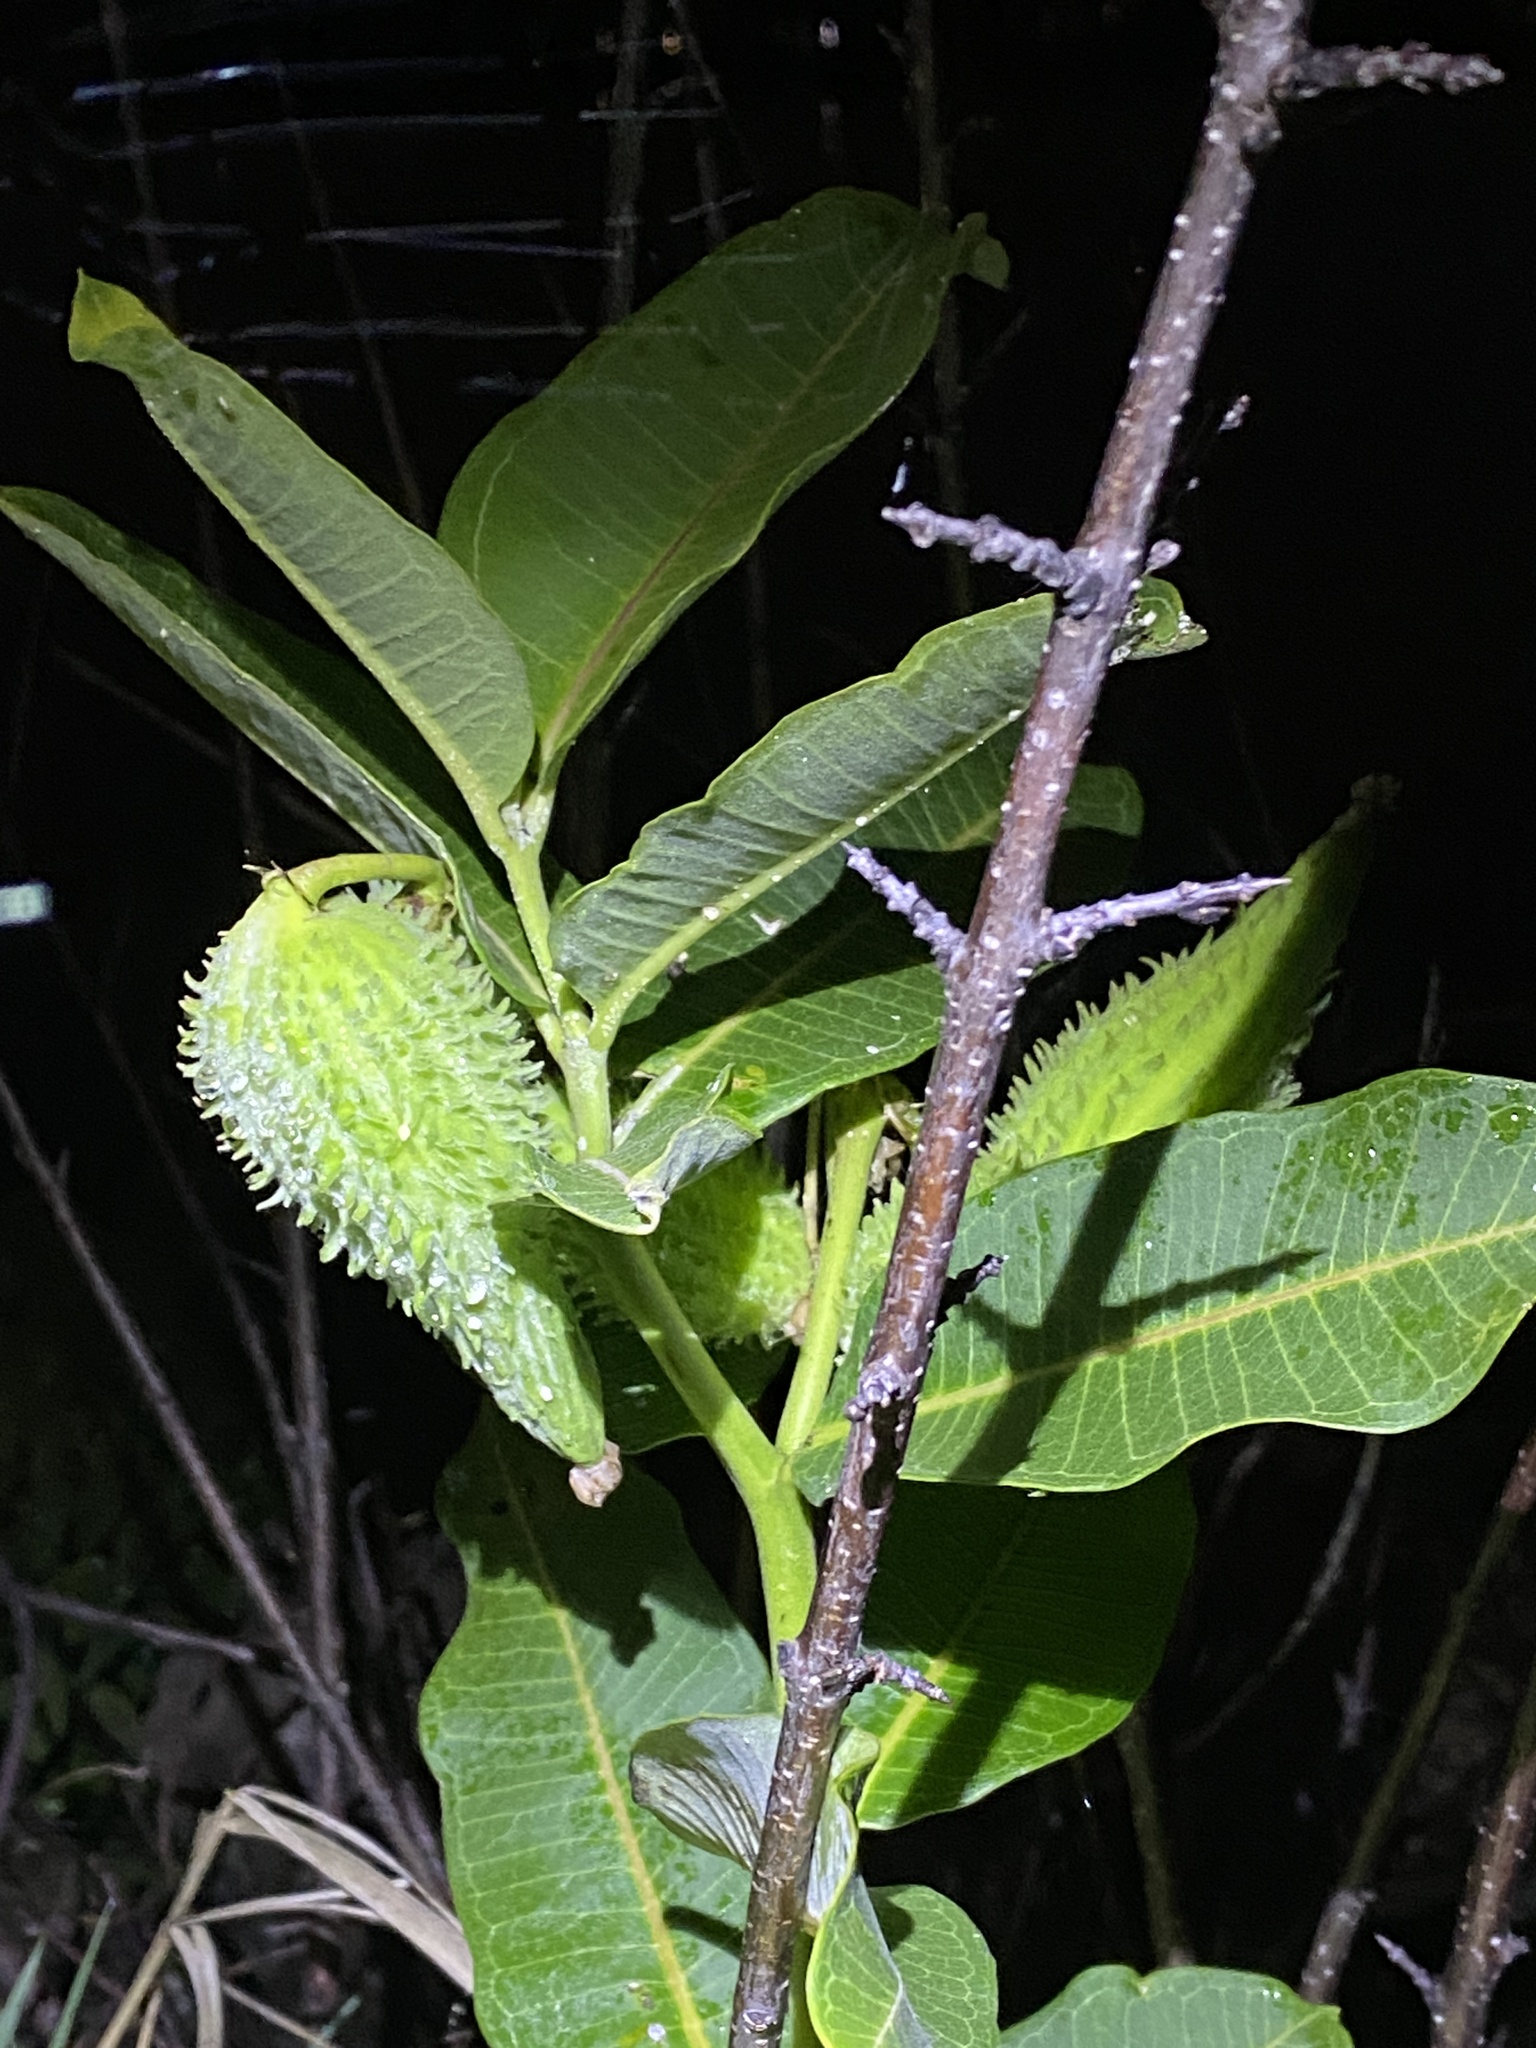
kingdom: Plantae
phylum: Tracheophyta
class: Magnoliopsida
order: Gentianales
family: Apocynaceae
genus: Asclepias
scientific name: Asclepias syriaca
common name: Common milkweed
